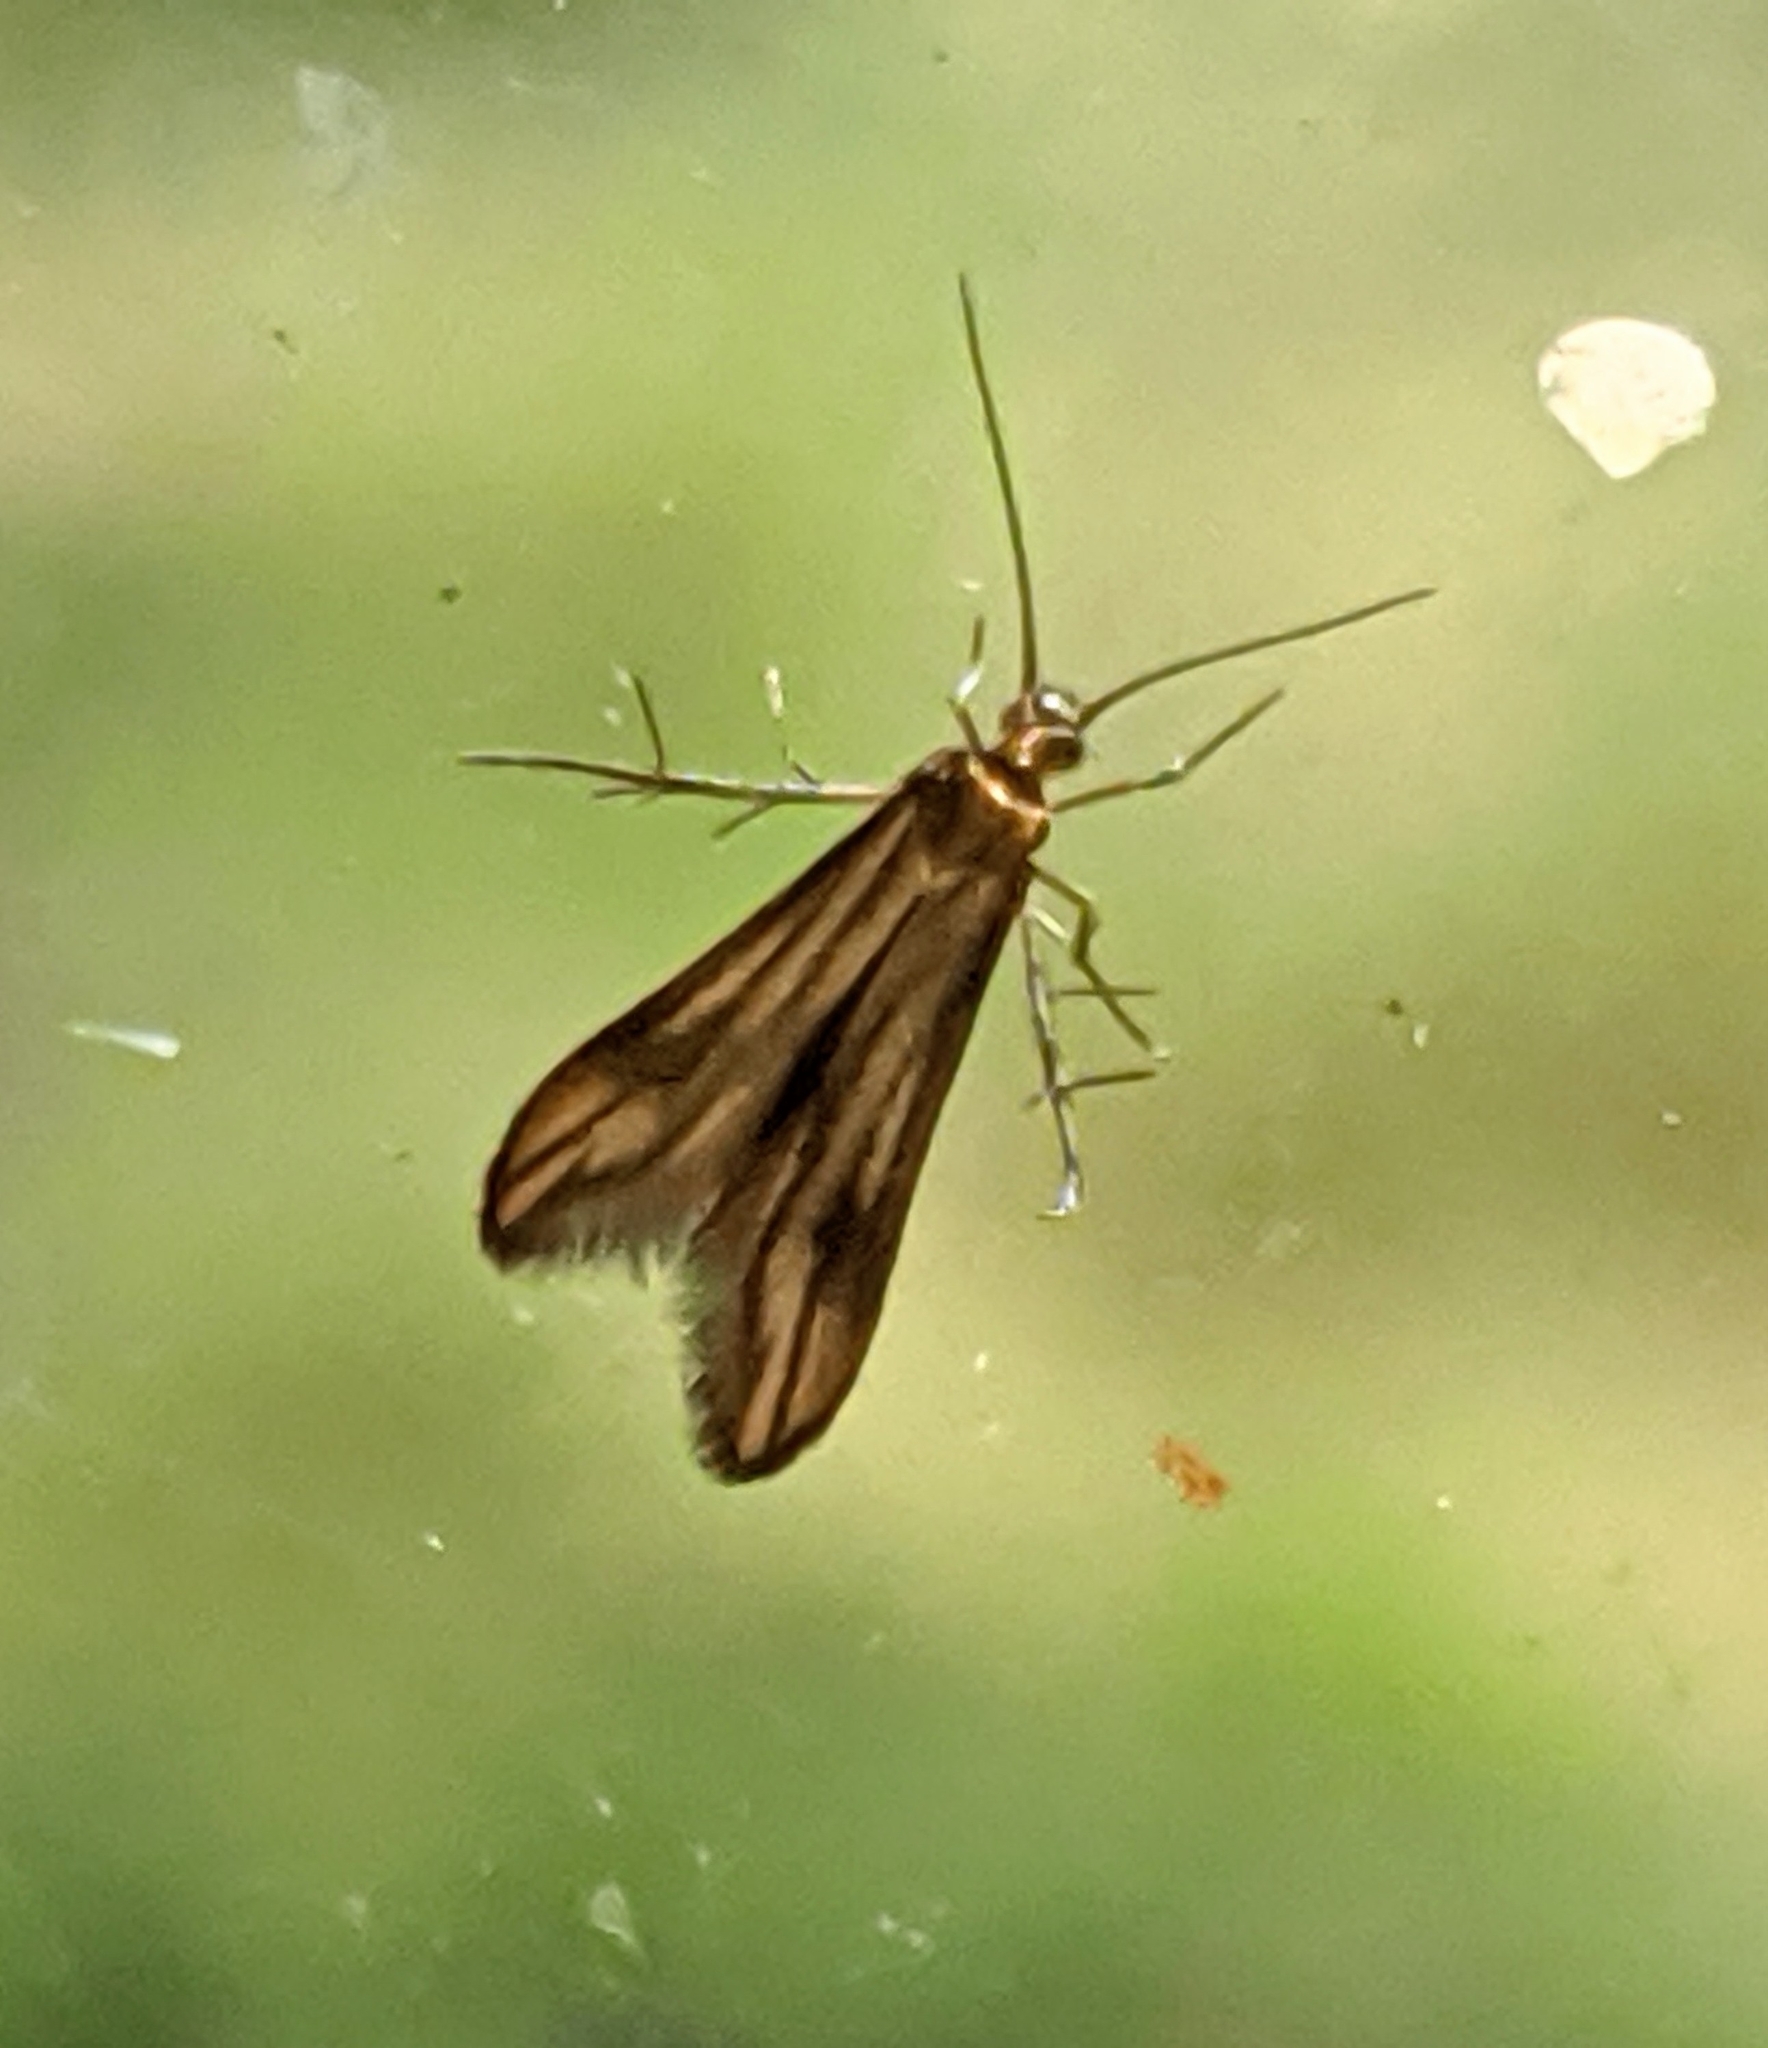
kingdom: Animalia
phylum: Arthropoda
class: Insecta
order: Lepidoptera
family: Schreckensteiniidae
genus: Schreckensteinia
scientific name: Schreckensteinia festaliella
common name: Blackberry skeletonizer
